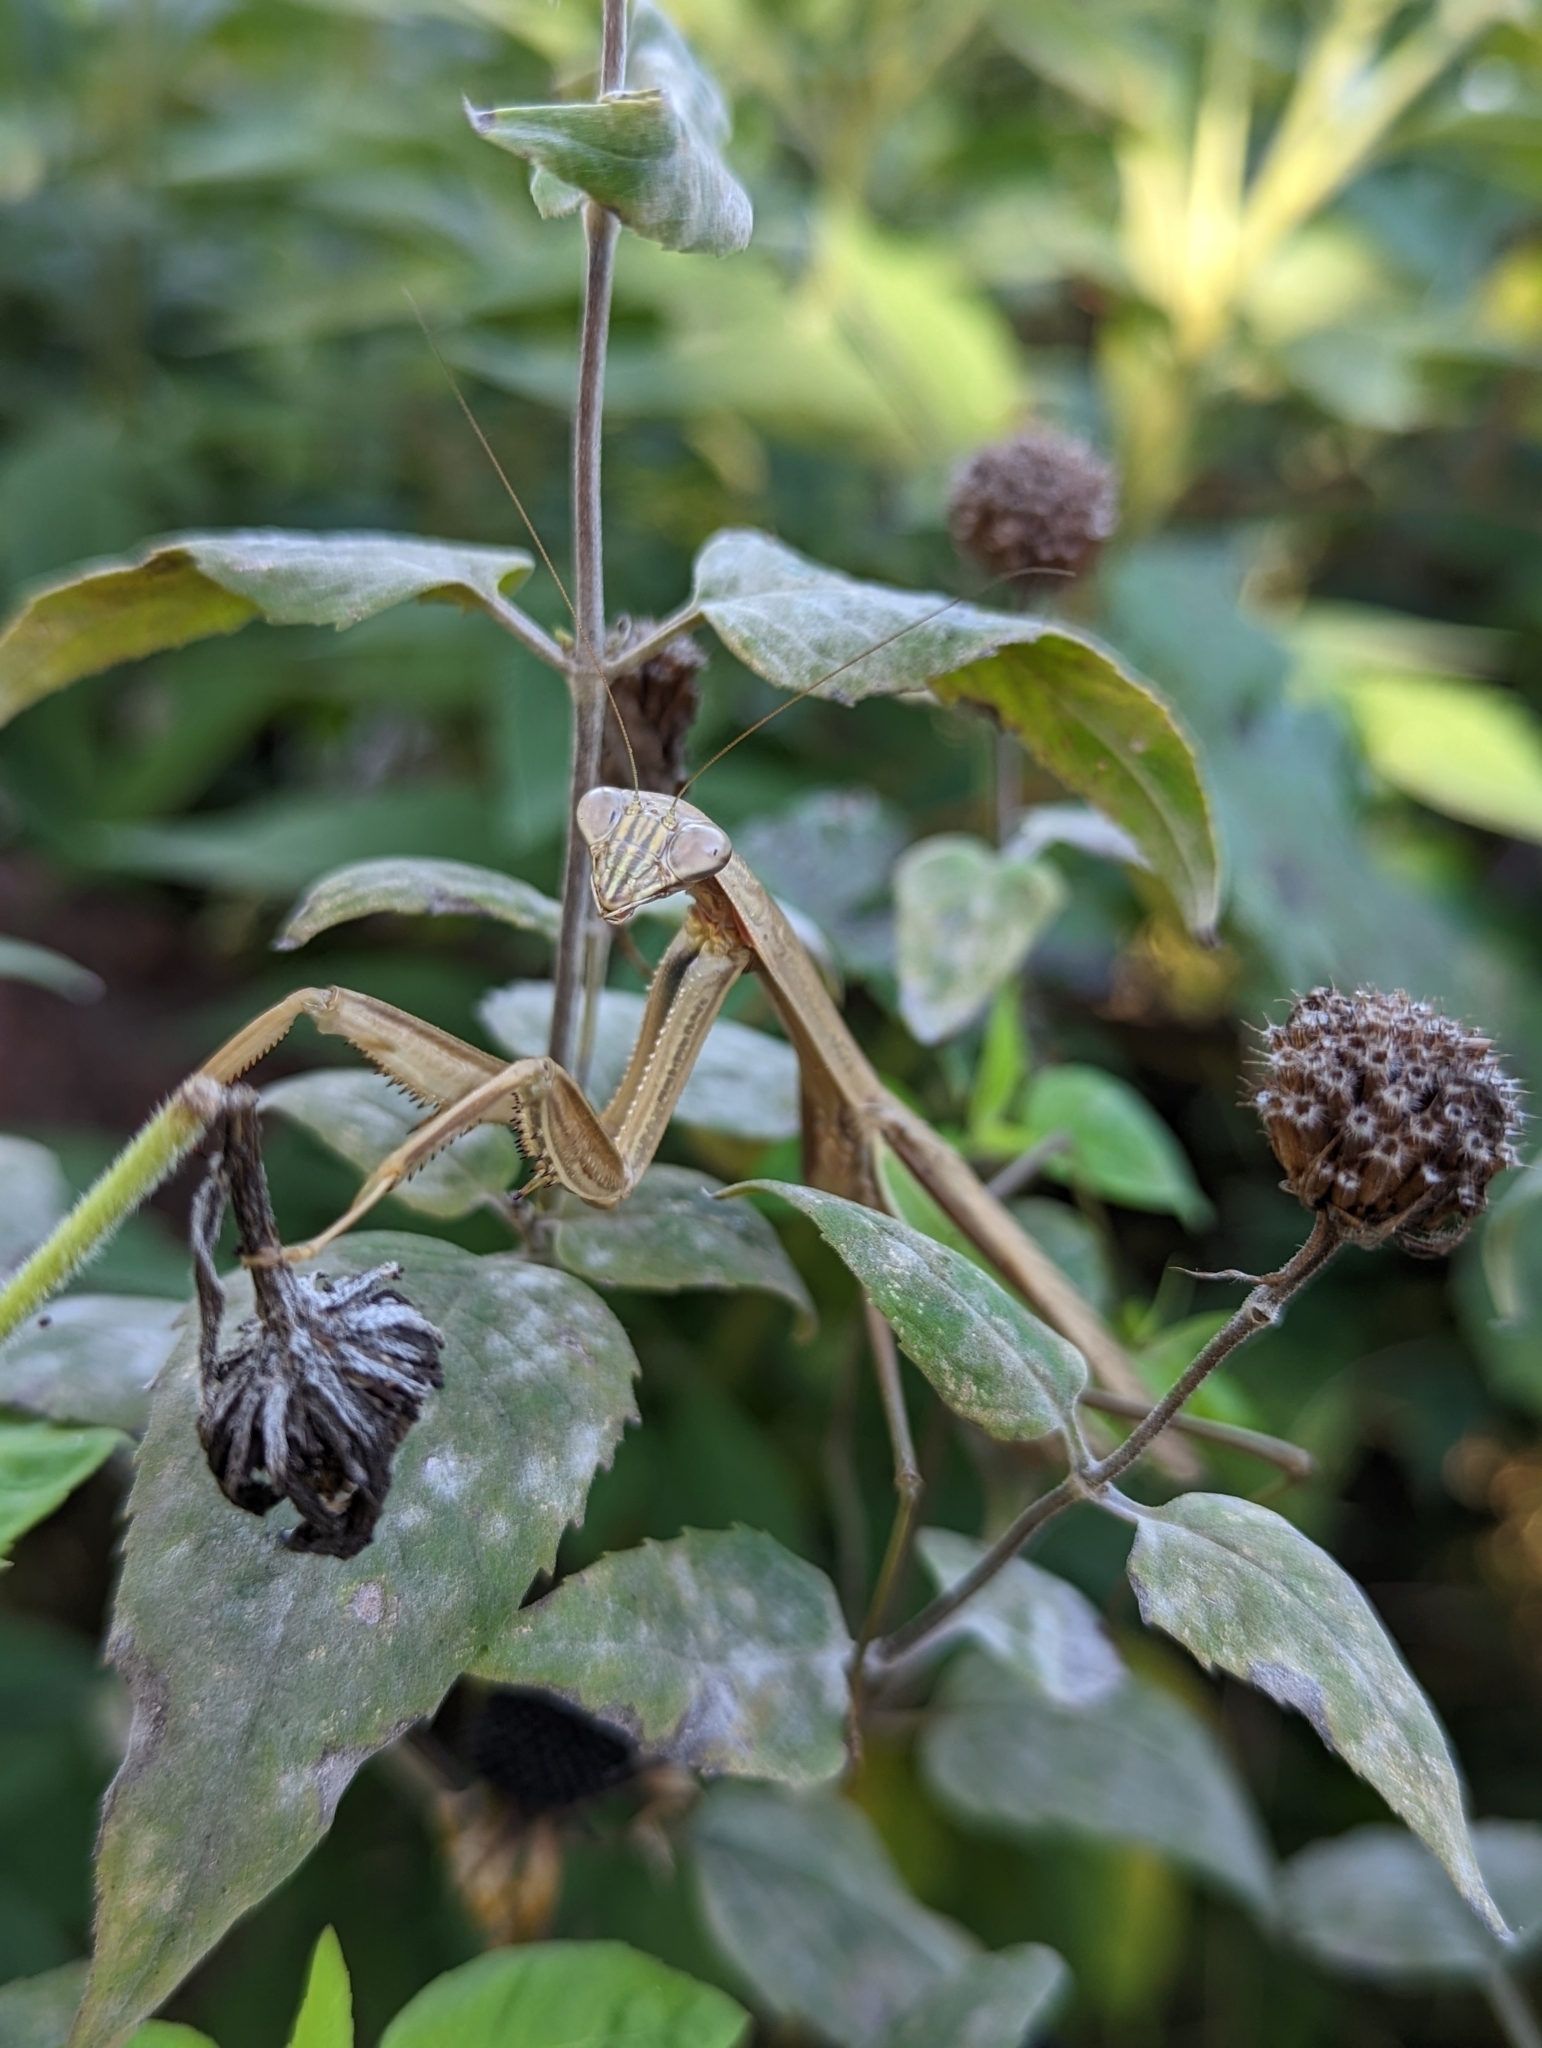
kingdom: Animalia
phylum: Arthropoda
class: Insecta
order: Mantodea
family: Mantidae
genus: Tenodera
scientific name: Tenodera sinensis
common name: Chinese mantis
